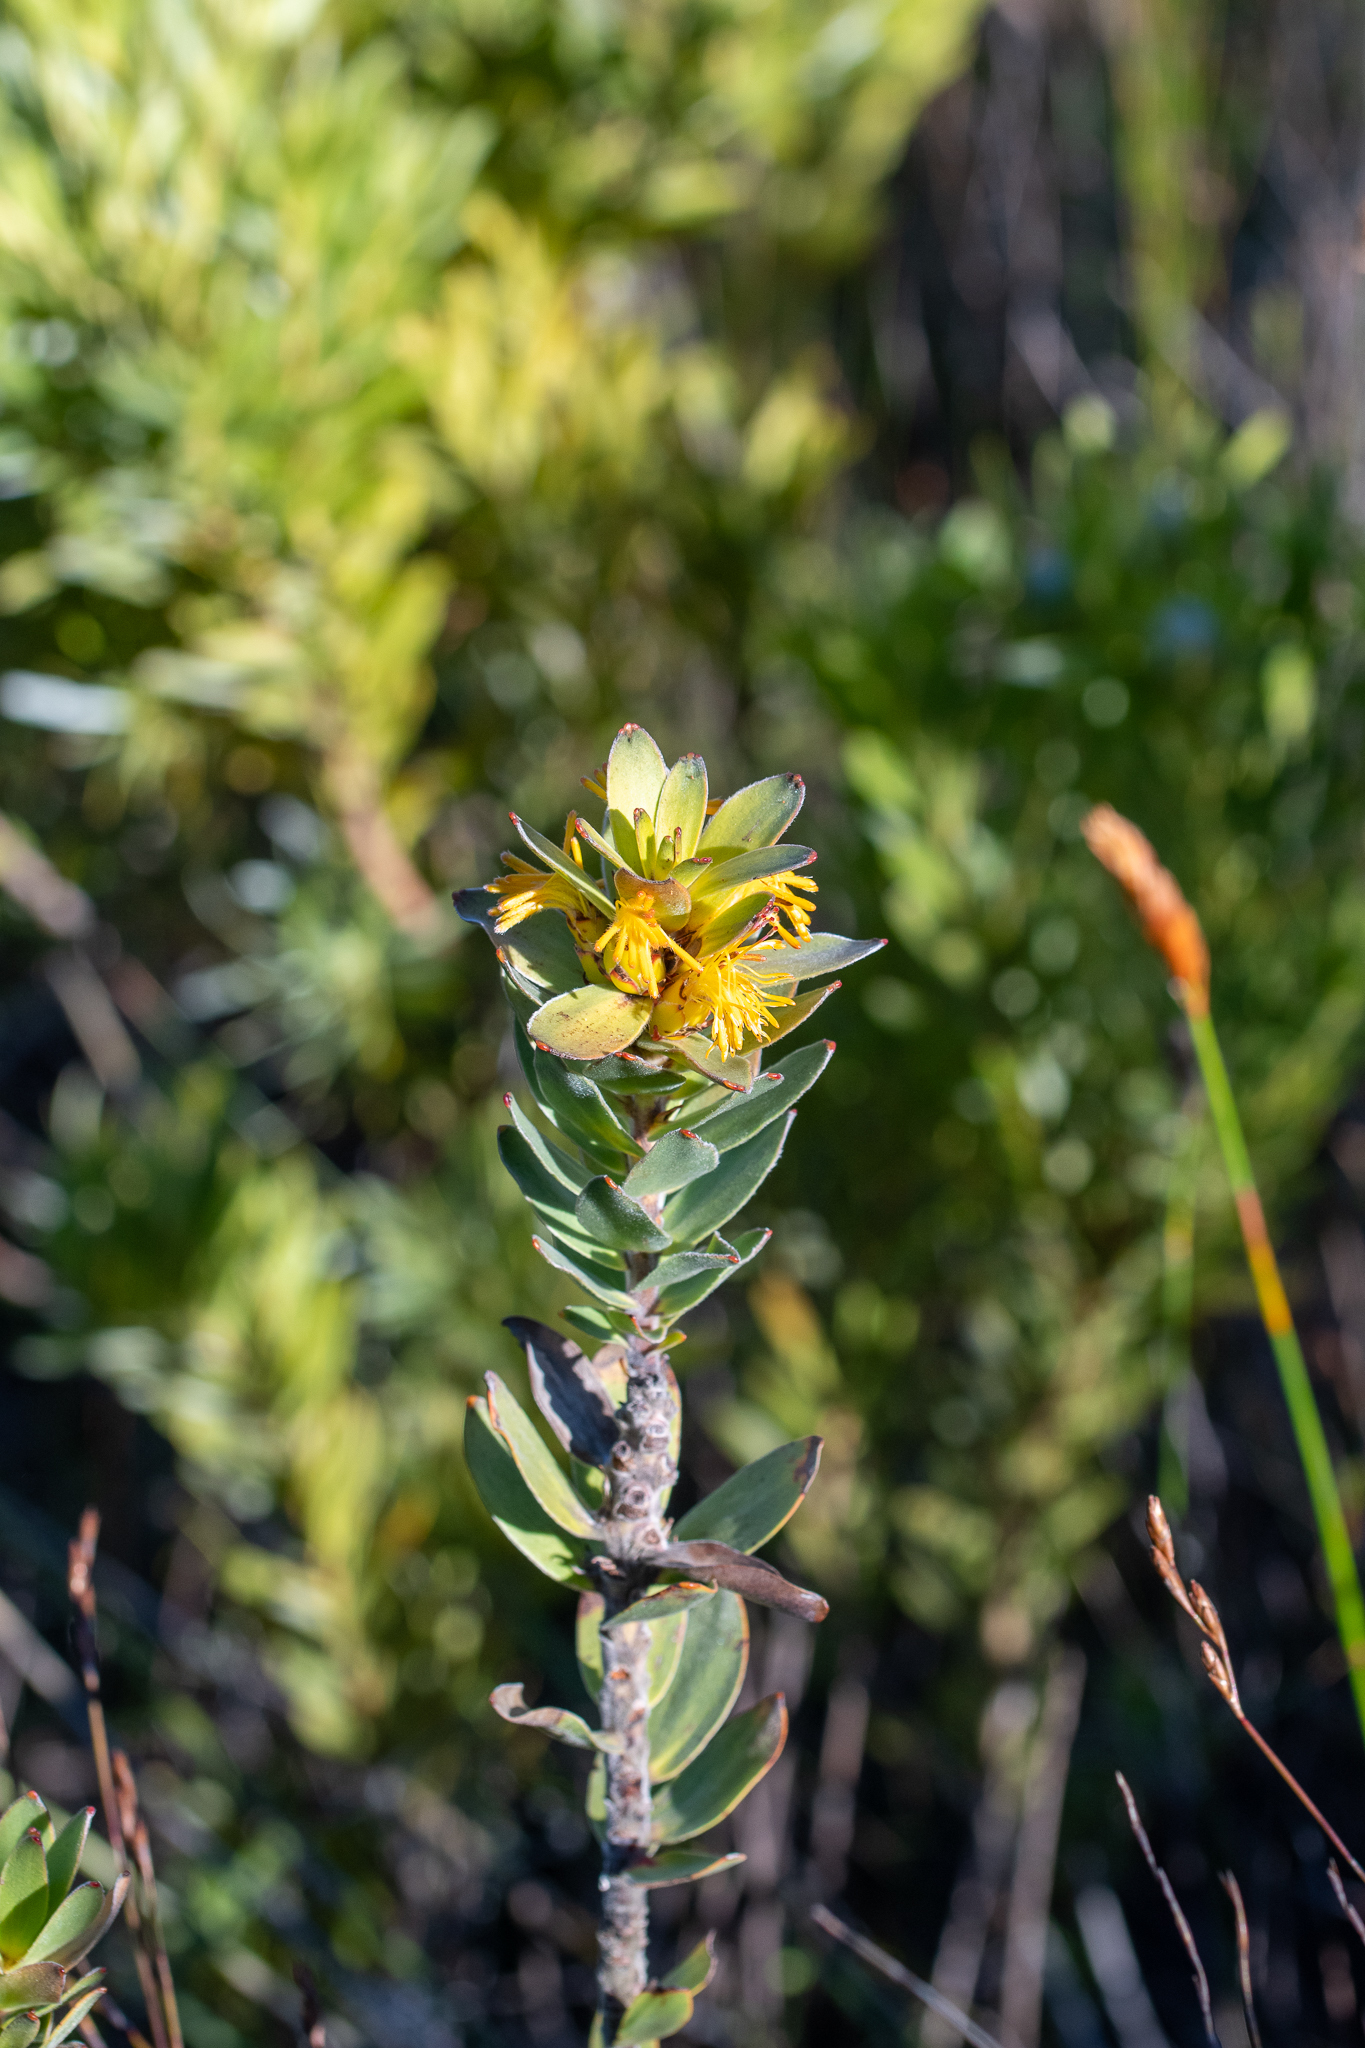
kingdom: Plantae
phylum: Tracheophyta
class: Magnoliopsida
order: Proteales
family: Proteaceae
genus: Mimetes
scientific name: Mimetes saxatilis
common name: Limestone pagoda
